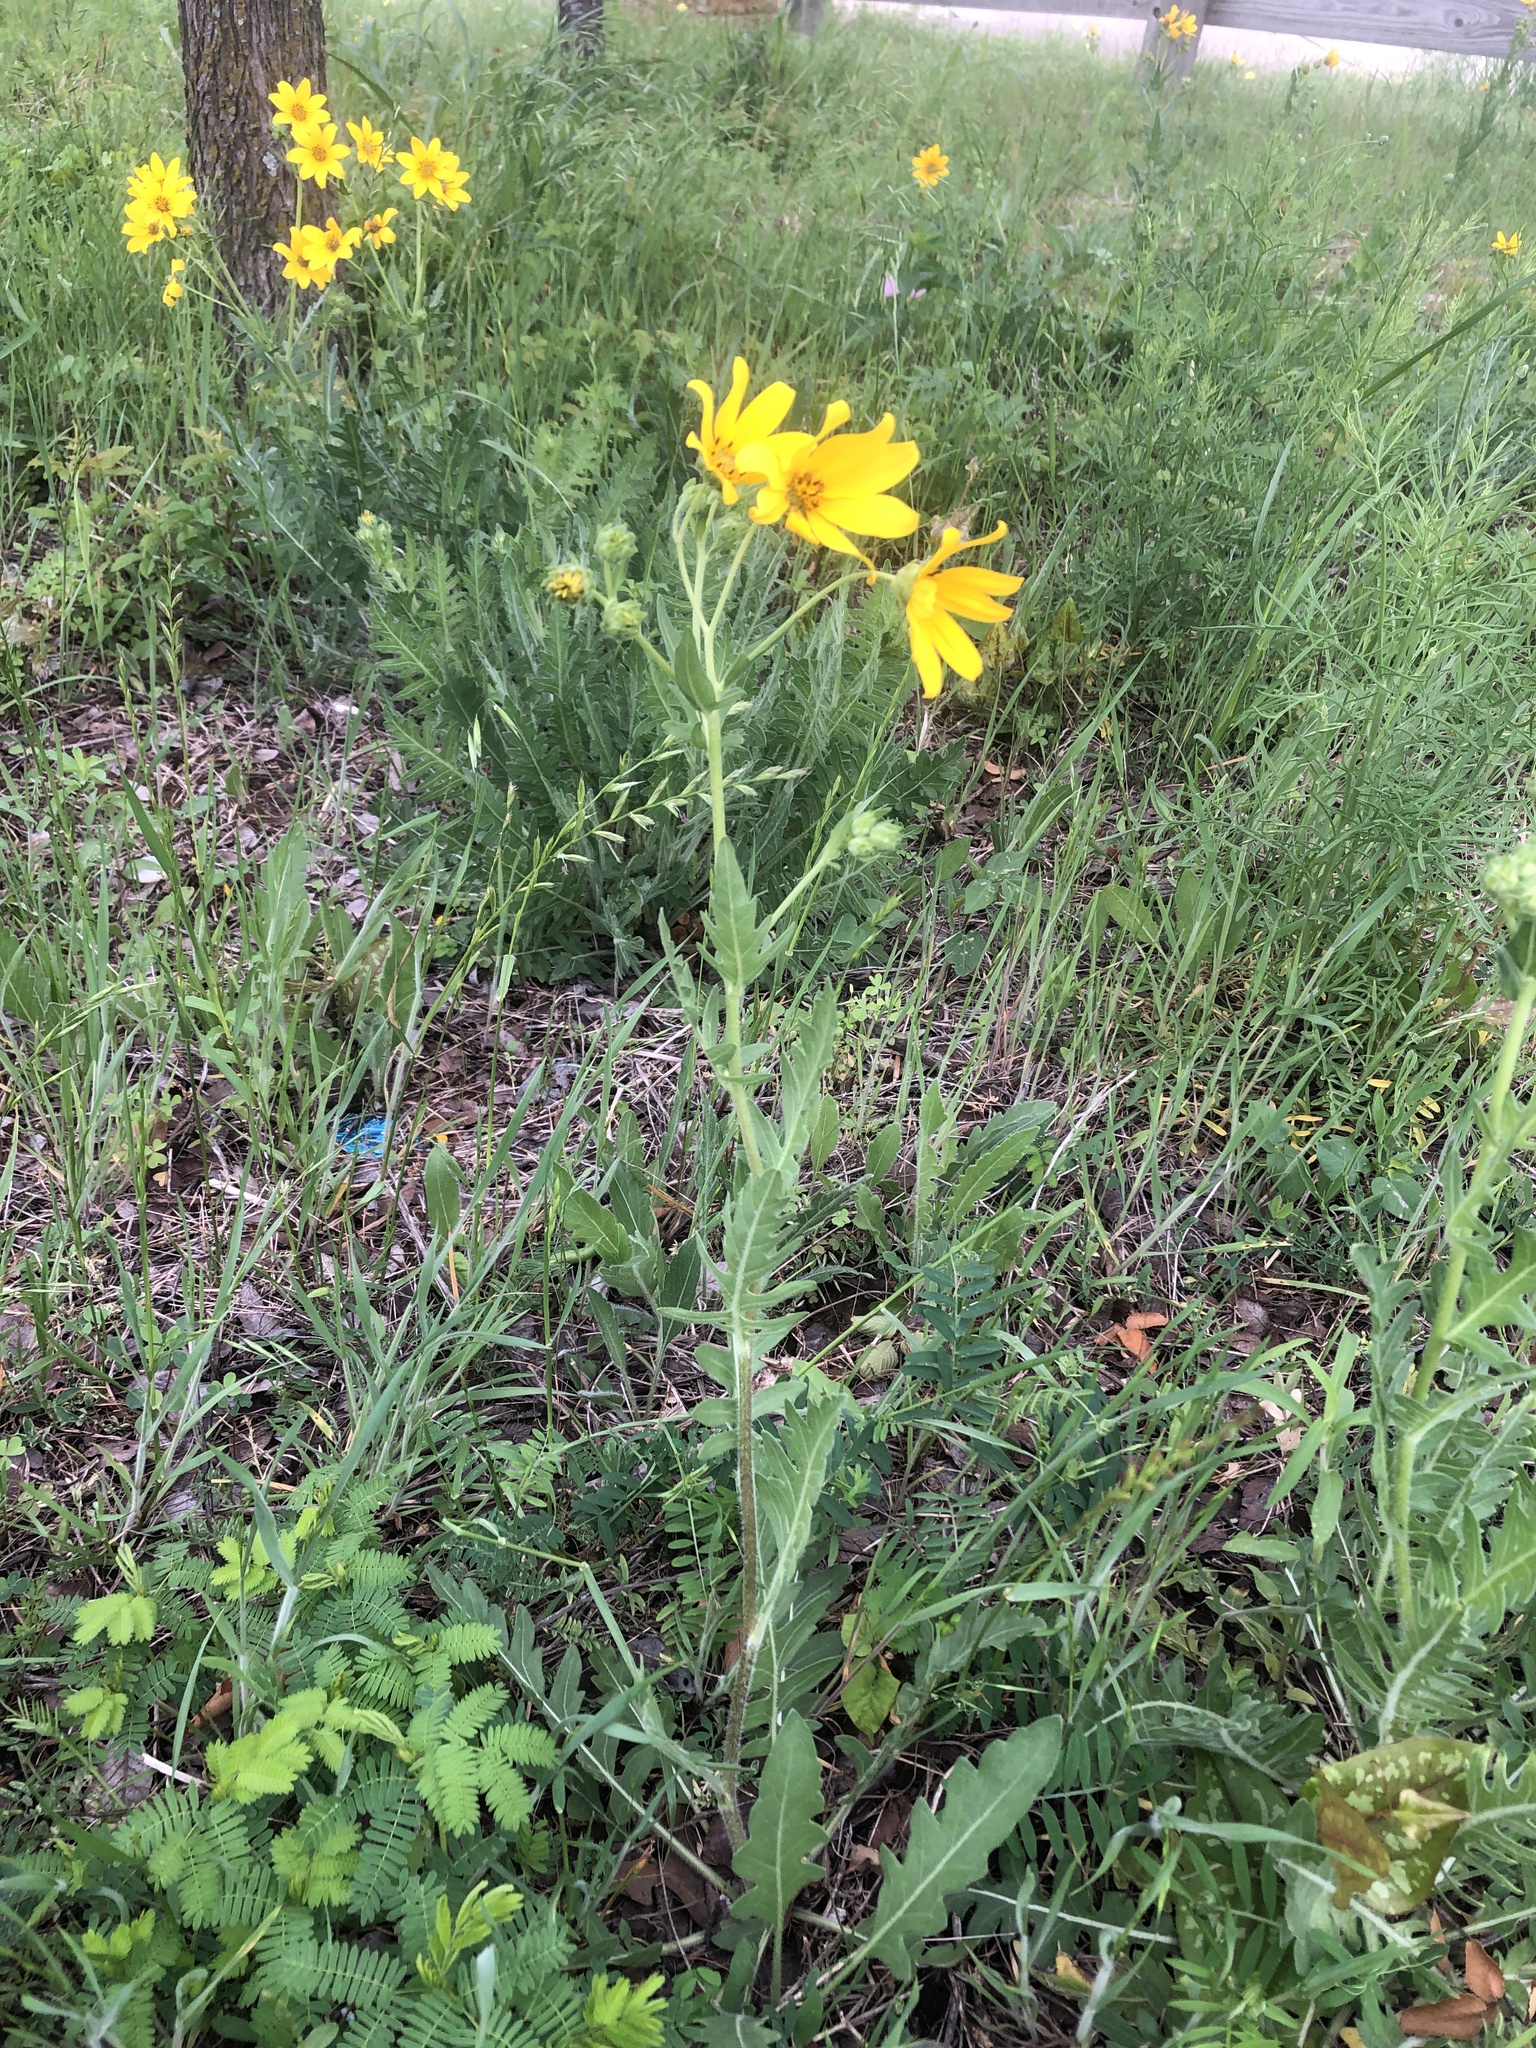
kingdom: Plantae
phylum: Tracheophyta
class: Magnoliopsida
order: Asterales
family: Asteraceae
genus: Engelmannia
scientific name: Engelmannia peristenia
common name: Engelmann's daisy
